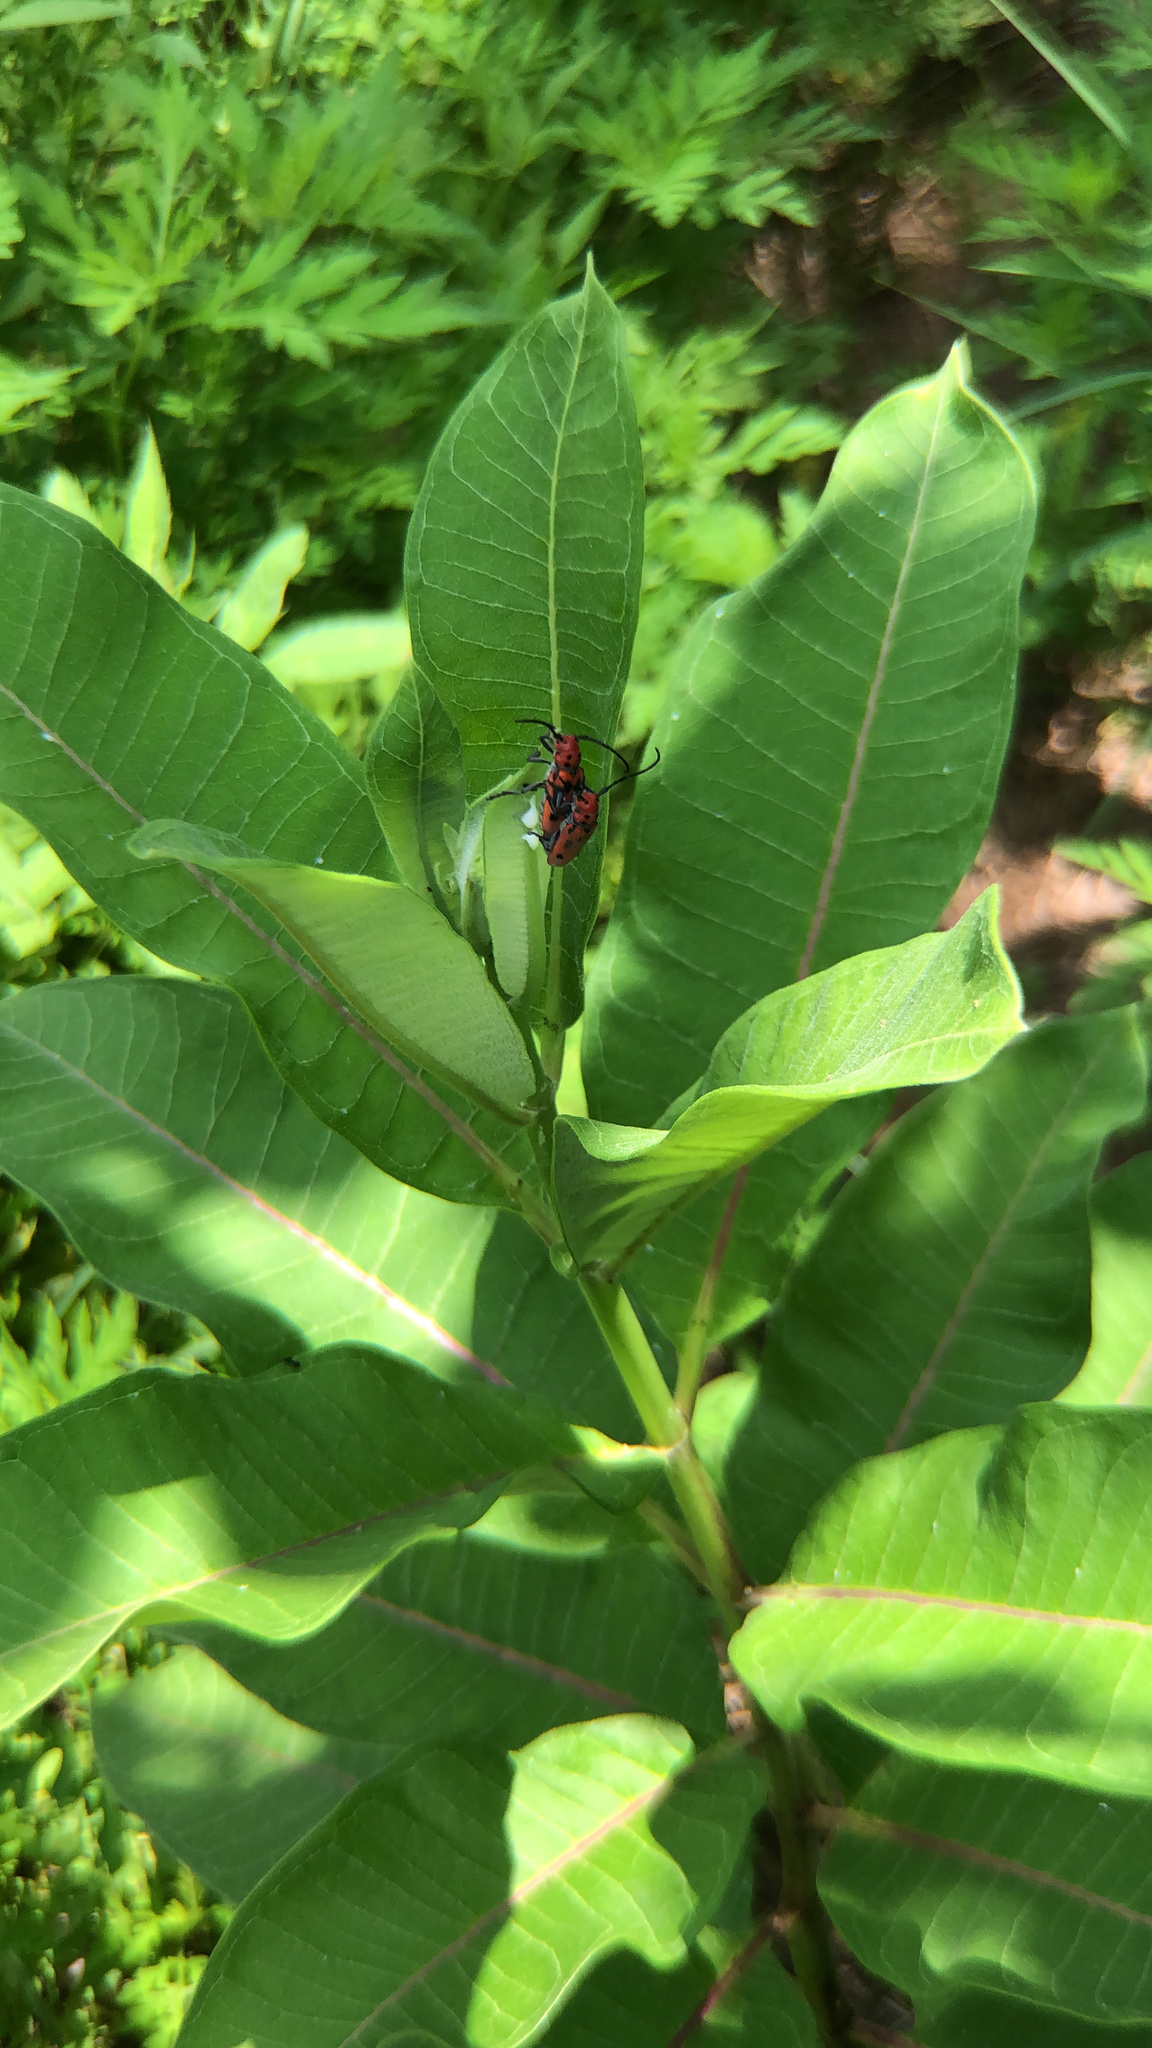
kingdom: Animalia
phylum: Arthropoda
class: Insecta
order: Coleoptera
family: Cerambycidae
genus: Tetraopes
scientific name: Tetraopes tetrophthalmus
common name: Red milkweed beetle
